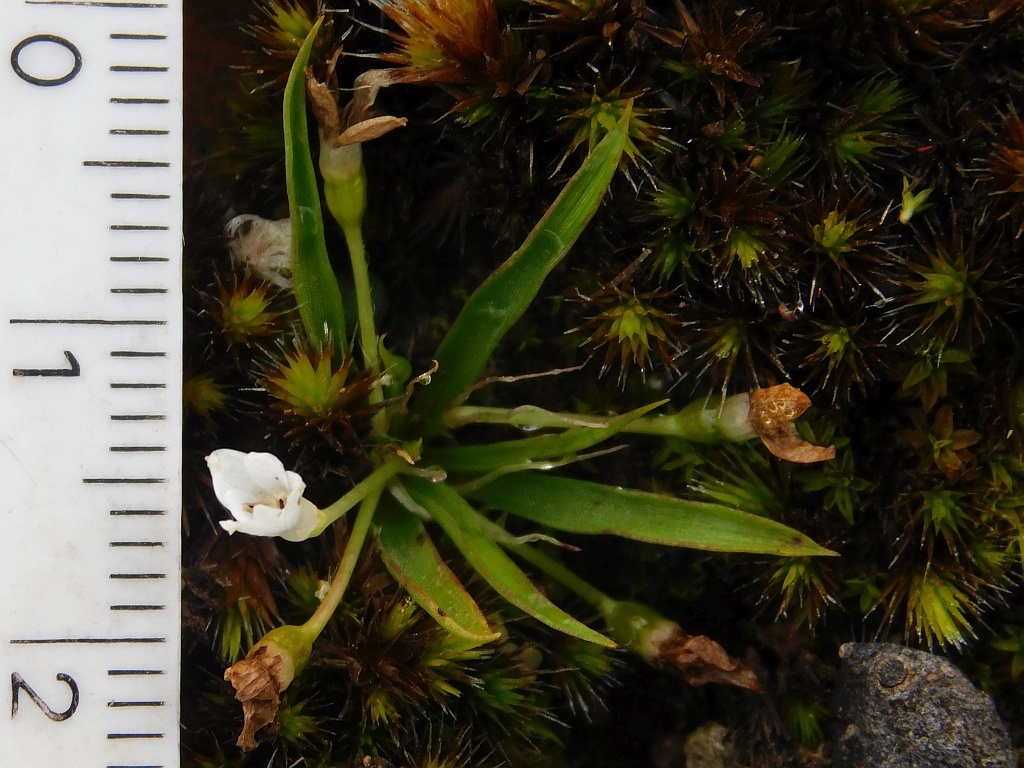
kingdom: Plantae
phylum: Tracheophyta
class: Liliopsida
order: Asparagales
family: Hypoxidaceae
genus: Pauridia
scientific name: Pauridia minuta
